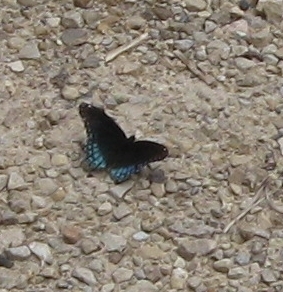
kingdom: Animalia
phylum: Arthropoda
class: Insecta
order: Lepidoptera
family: Nymphalidae
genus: Limenitis
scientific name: Limenitis arthemis
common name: Red-spotted admiral
